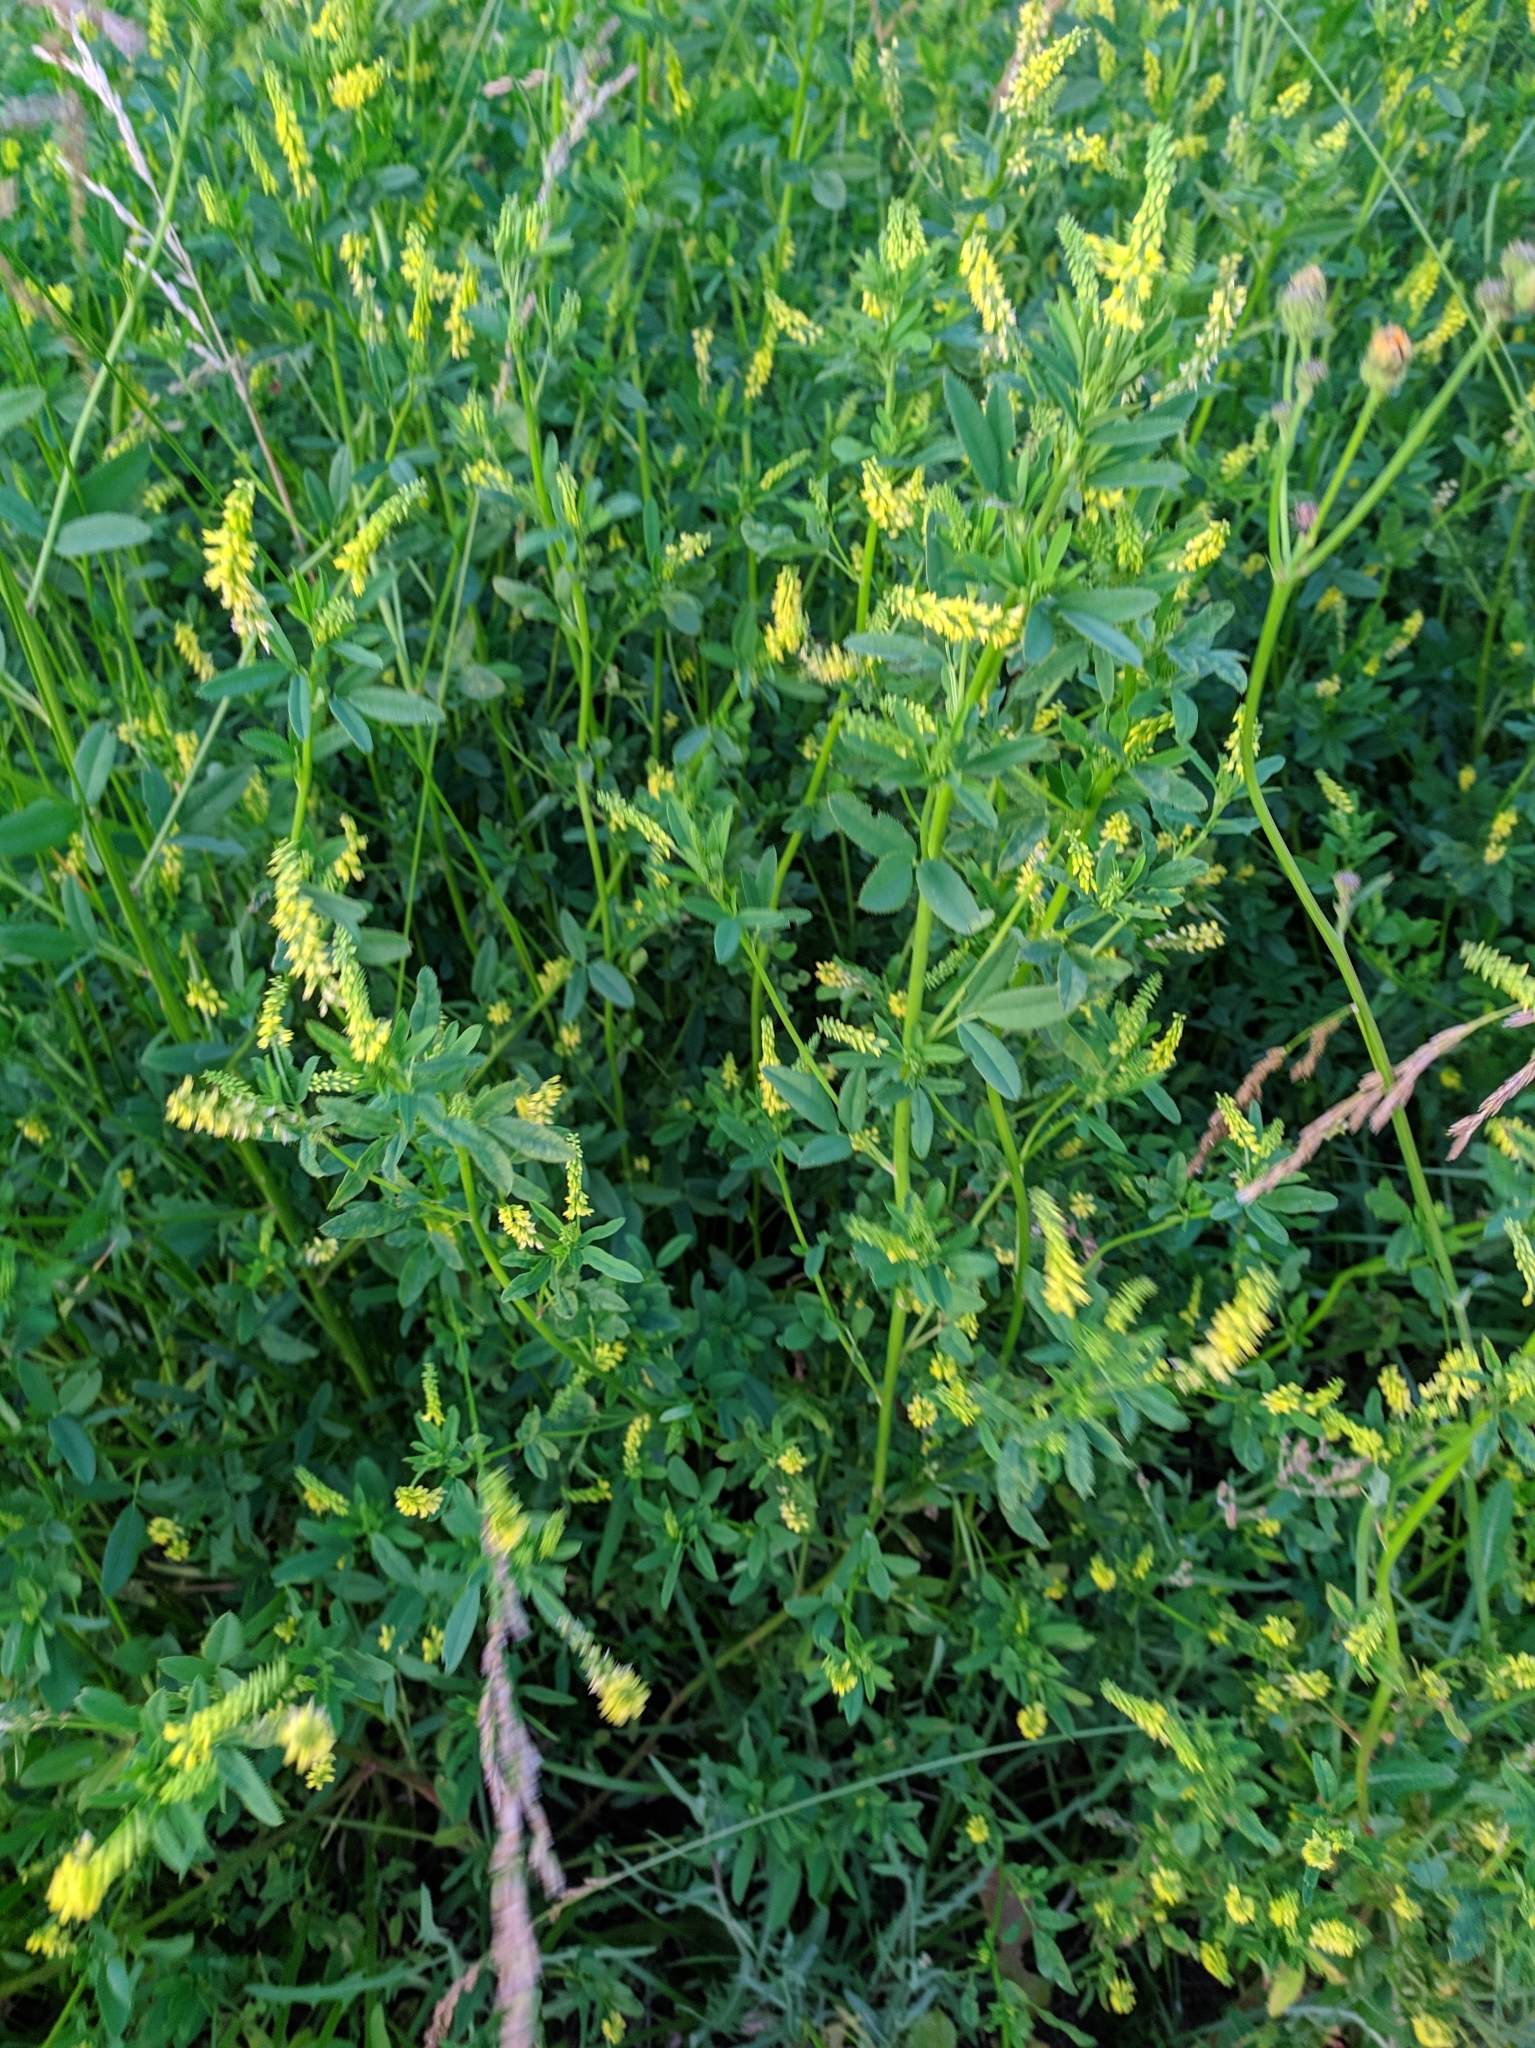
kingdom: Plantae
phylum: Tracheophyta
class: Magnoliopsida
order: Fabales
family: Fabaceae
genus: Melilotus
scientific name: Melilotus officinalis
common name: Sweetclover
